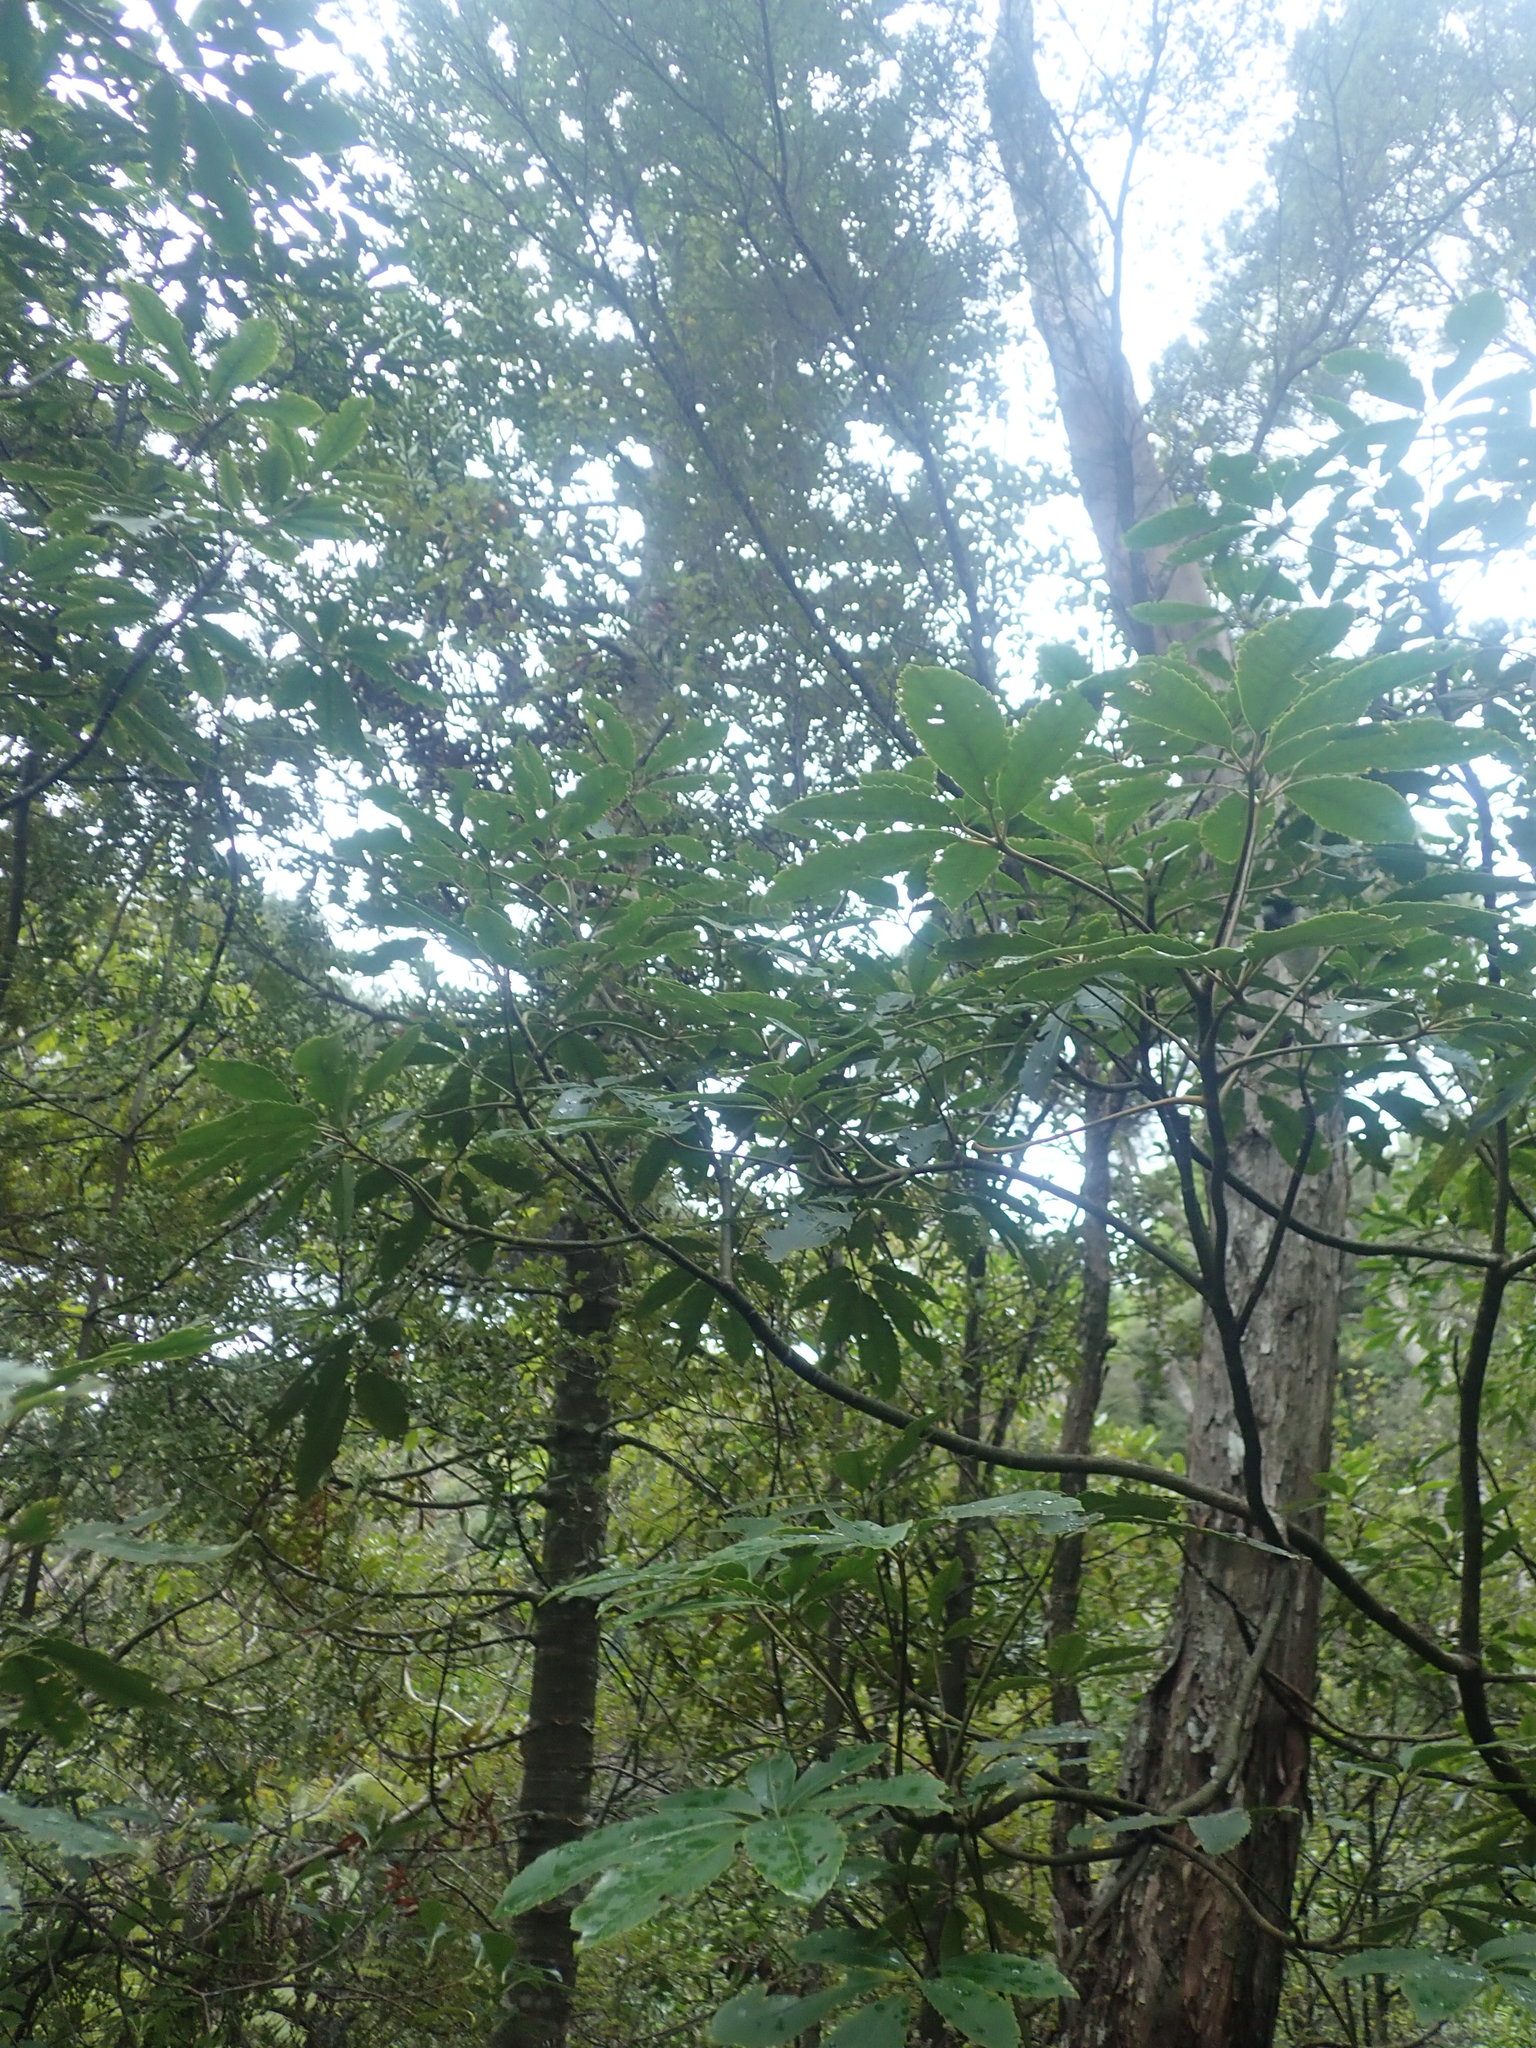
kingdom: Plantae
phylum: Tracheophyta
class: Pinopsida
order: Pinales
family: Araucariaceae
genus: Agathis
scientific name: Agathis australis
